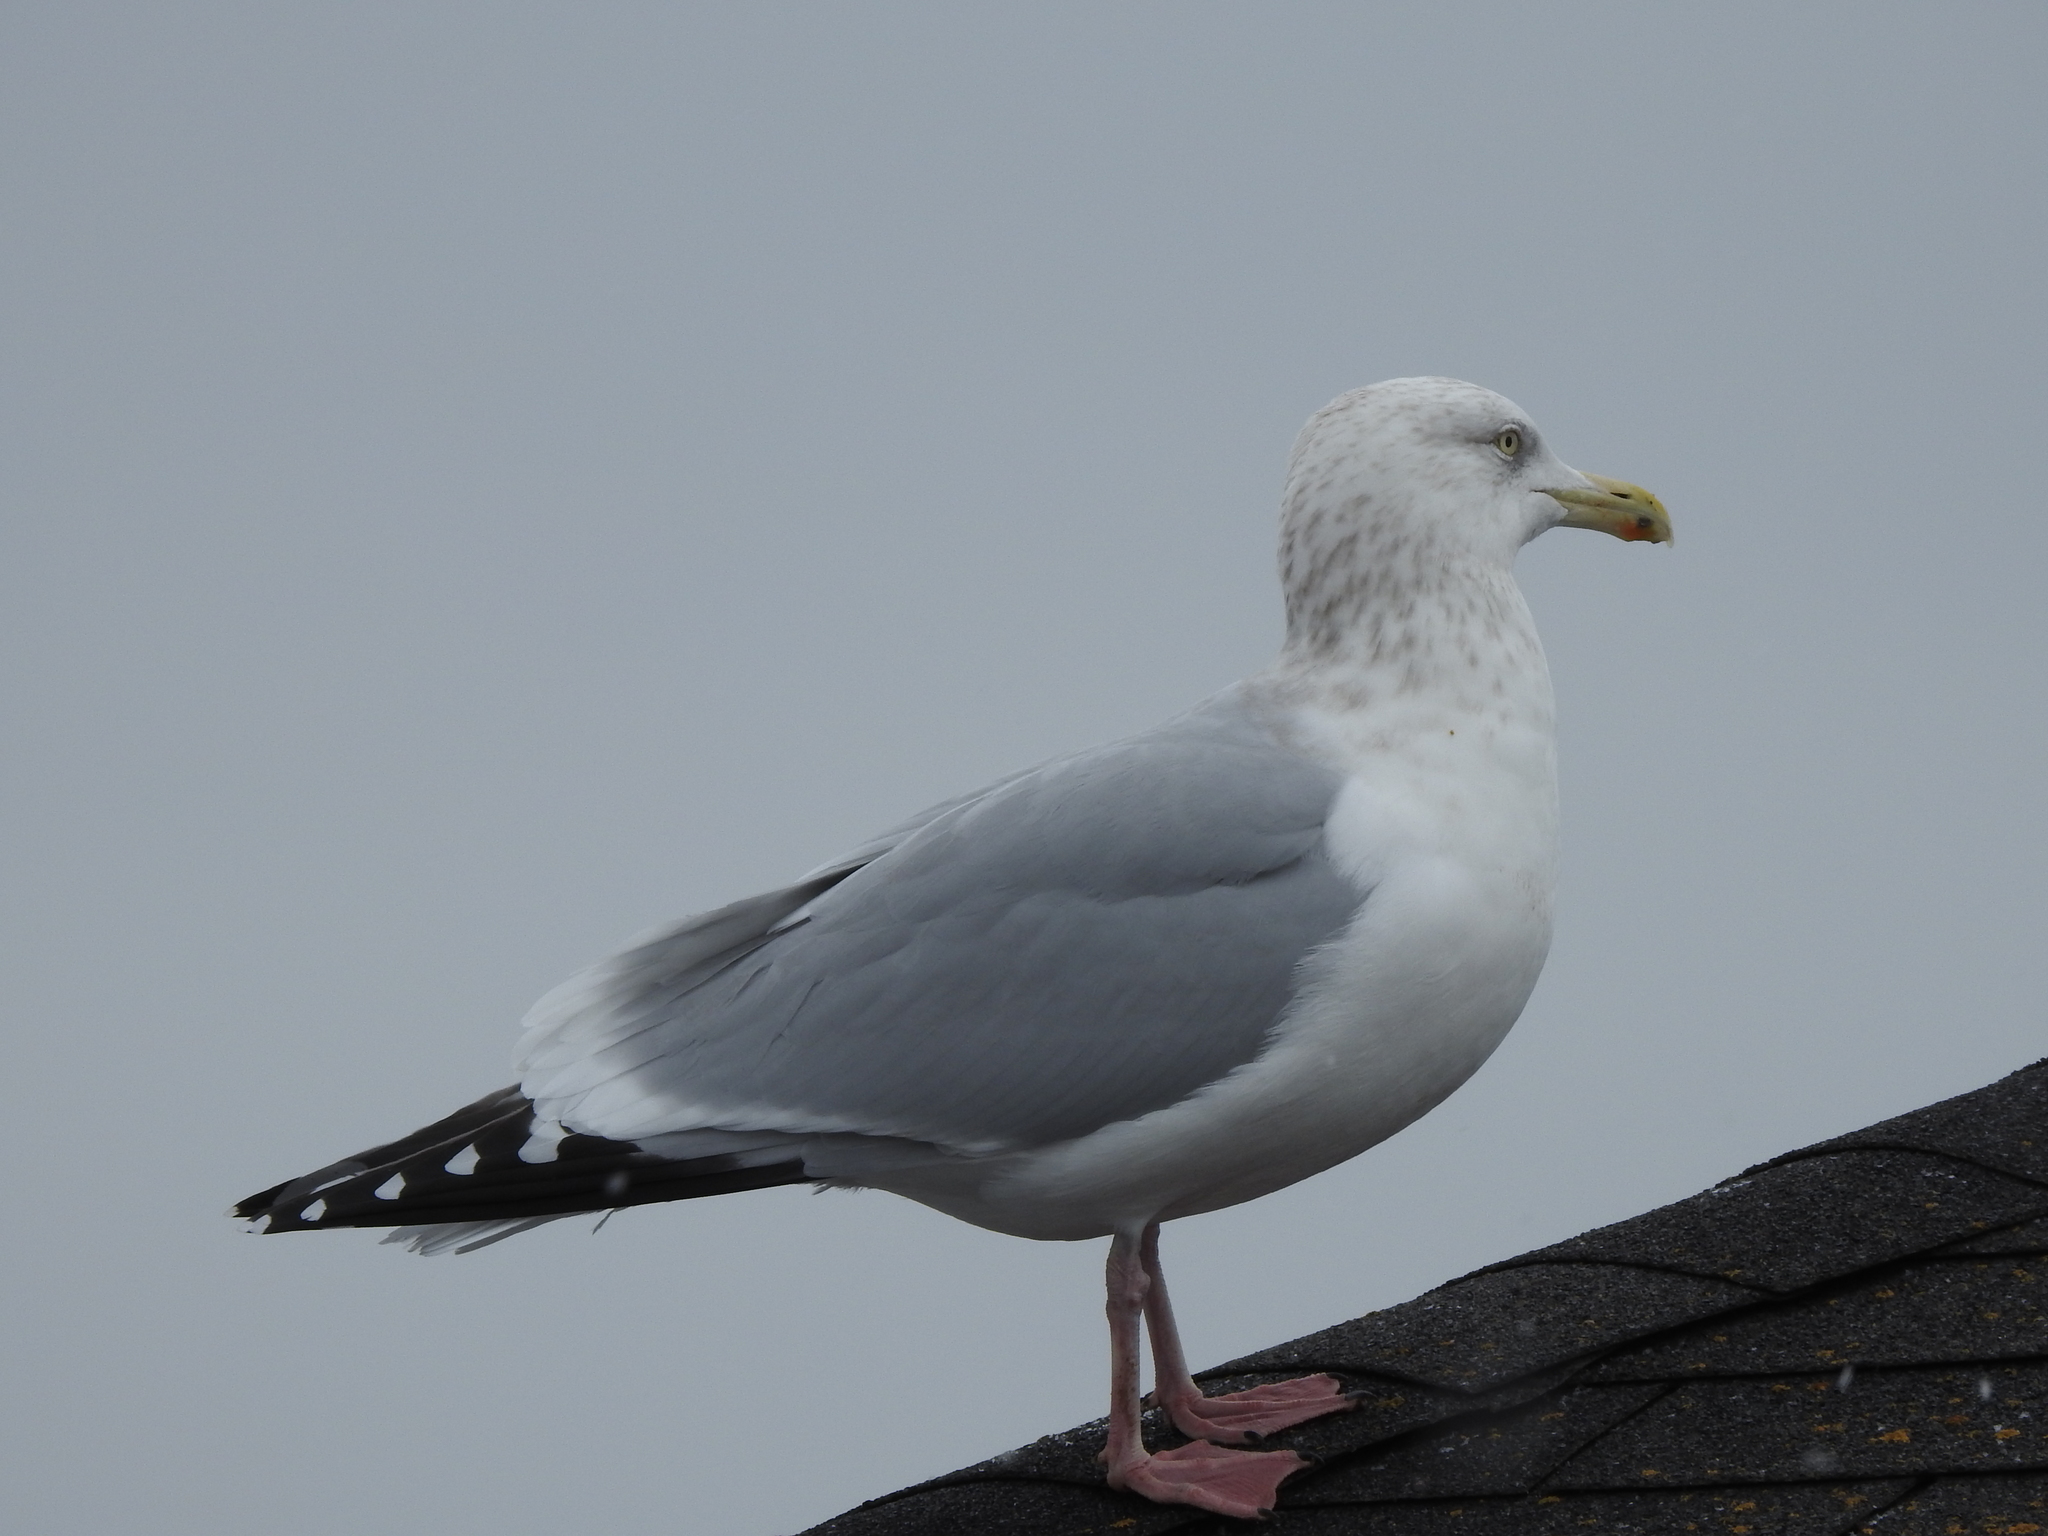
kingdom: Animalia
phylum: Chordata
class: Aves
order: Charadriiformes
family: Laridae
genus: Larus
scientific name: Larus argentatus
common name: Herring gull
